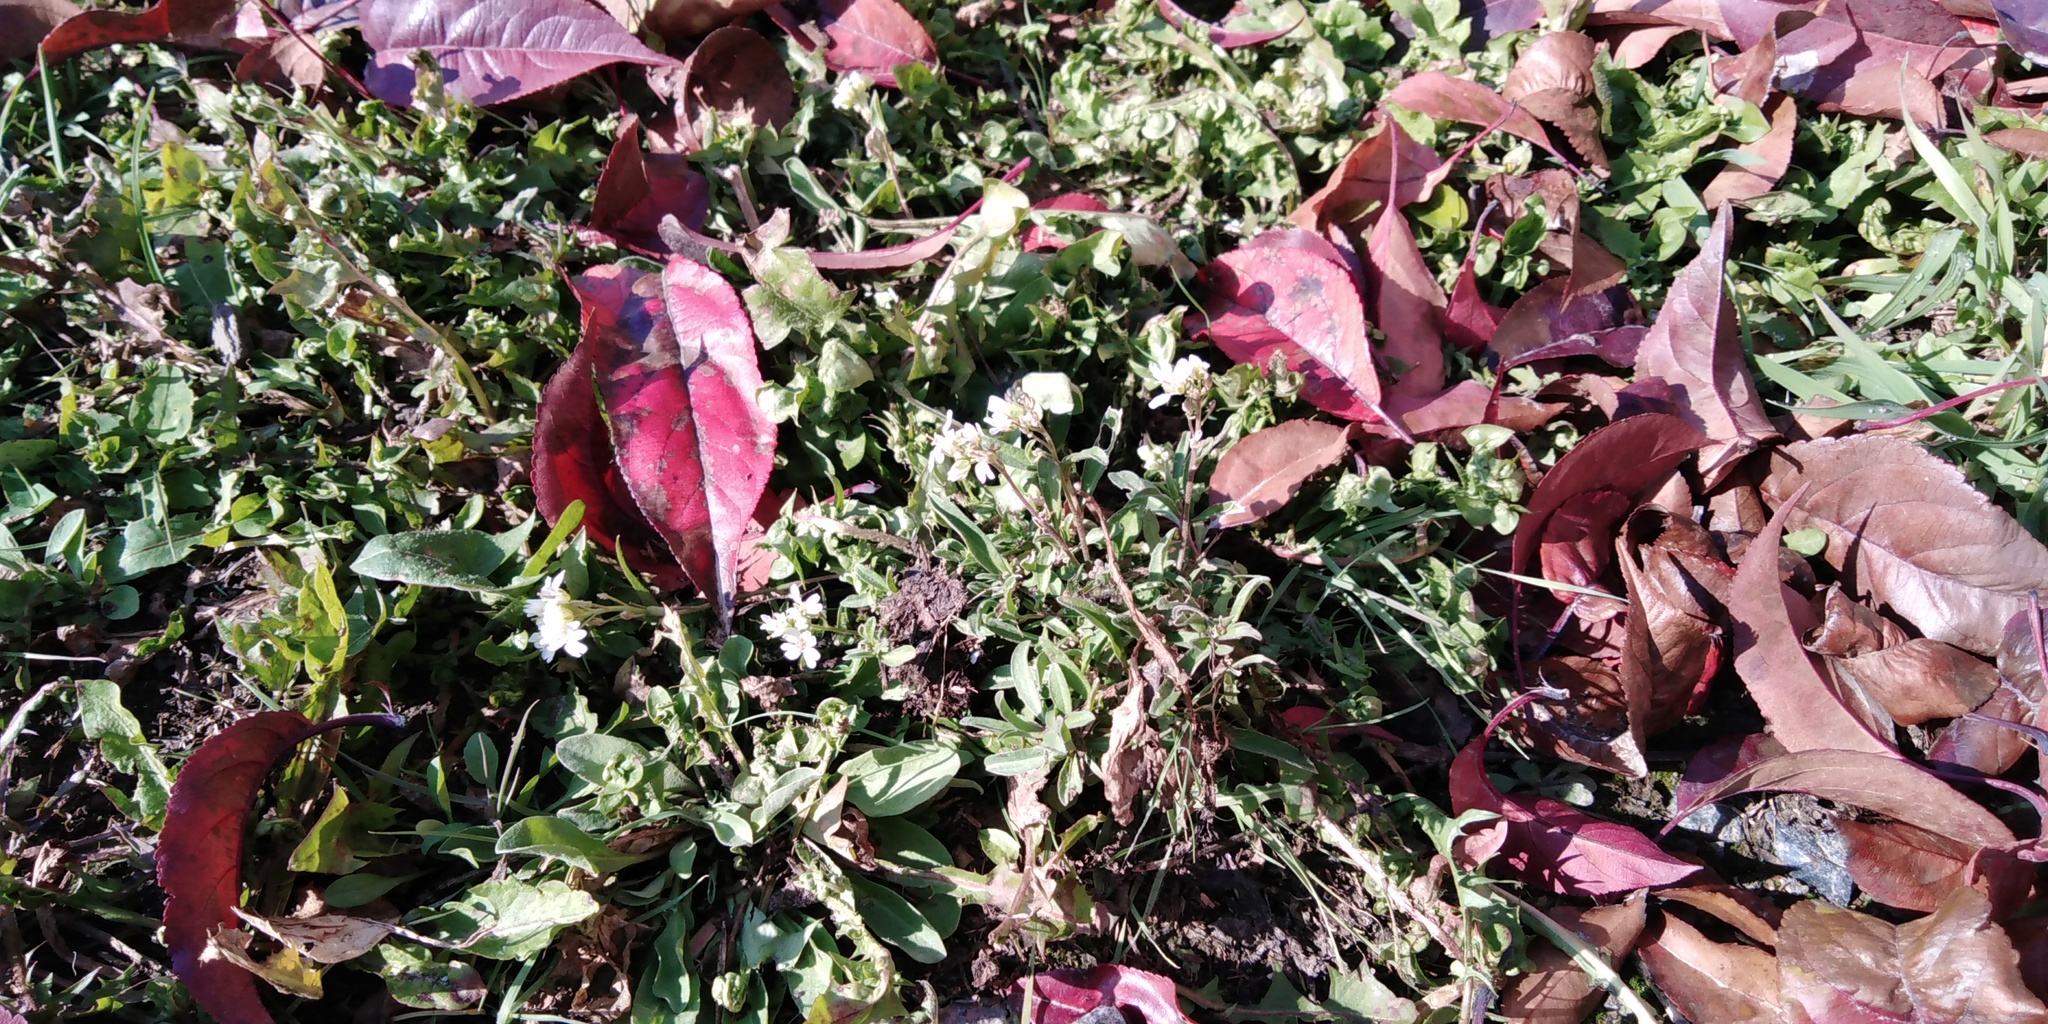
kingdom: Plantae
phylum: Tracheophyta
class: Magnoliopsida
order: Brassicales
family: Brassicaceae
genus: Berteroa
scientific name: Berteroa incana
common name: Hoary alison
